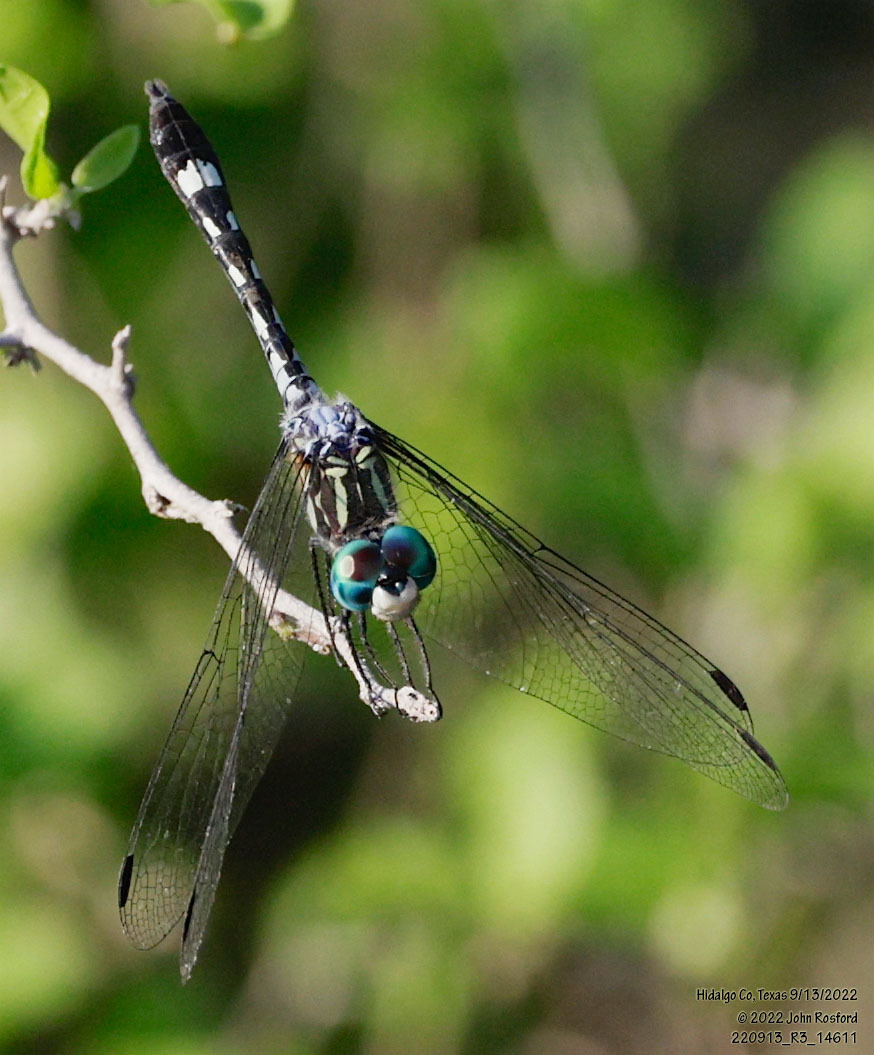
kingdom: Animalia
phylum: Arthropoda
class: Insecta
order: Odonata
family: Libellulidae
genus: Micrathyria
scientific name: Micrathyria hagenii
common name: Thornbush dasher
